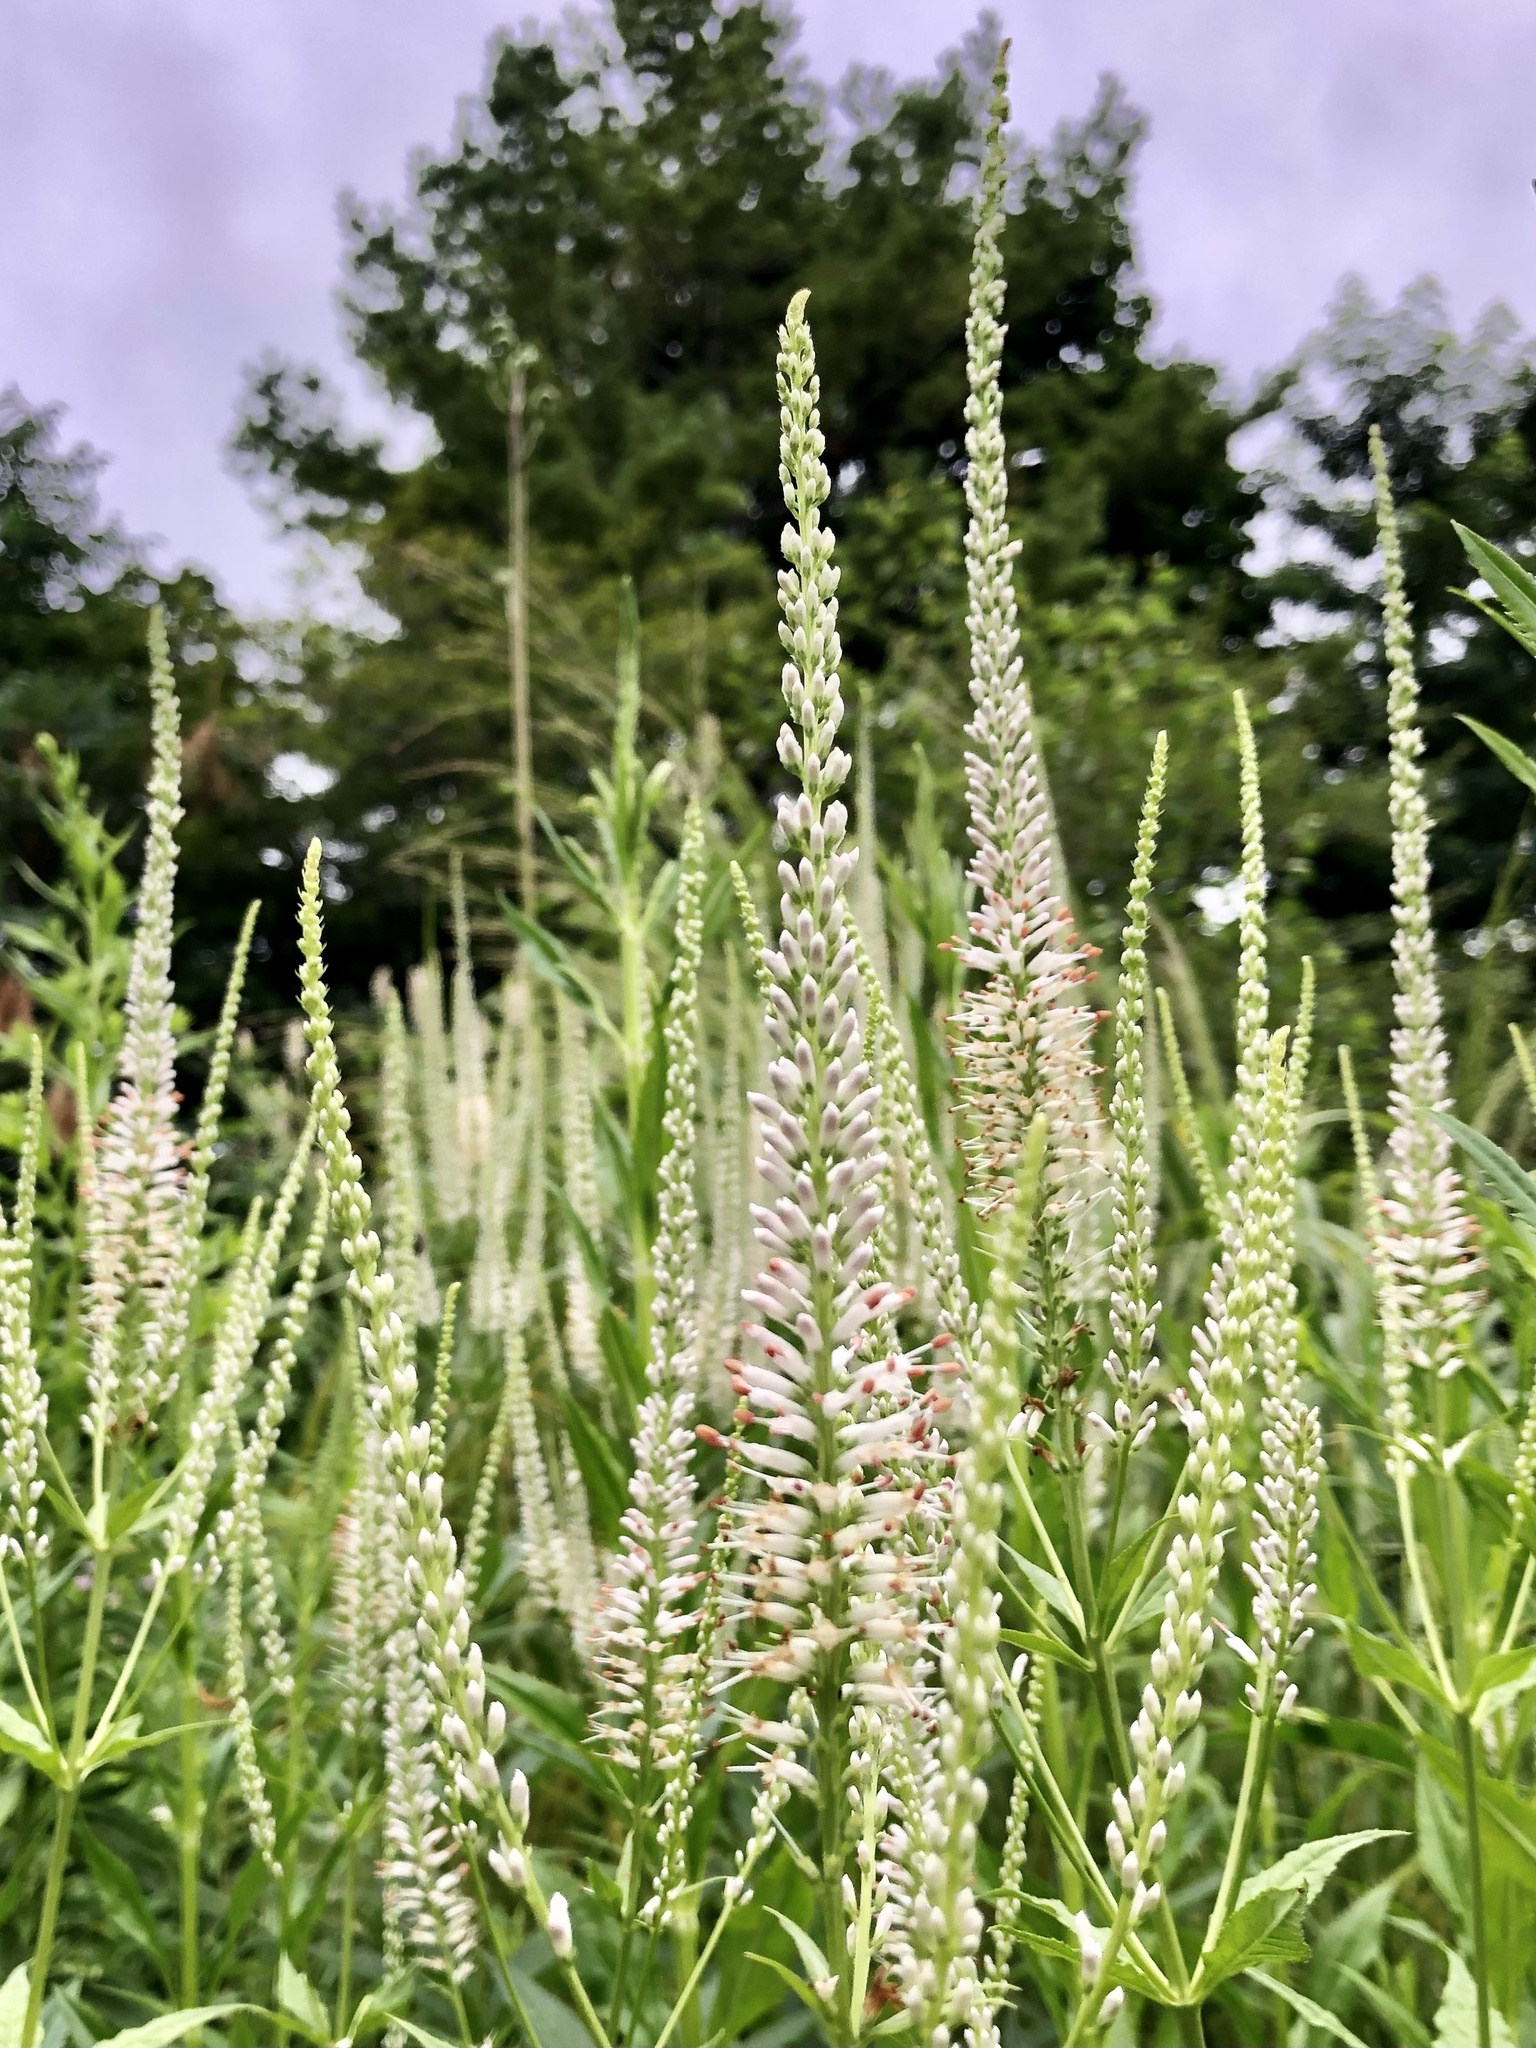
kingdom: Plantae
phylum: Tracheophyta
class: Magnoliopsida
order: Lamiales
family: Plantaginaceae
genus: Veronicastrum
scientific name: Veronicastrum virginicum
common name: Blackroot
